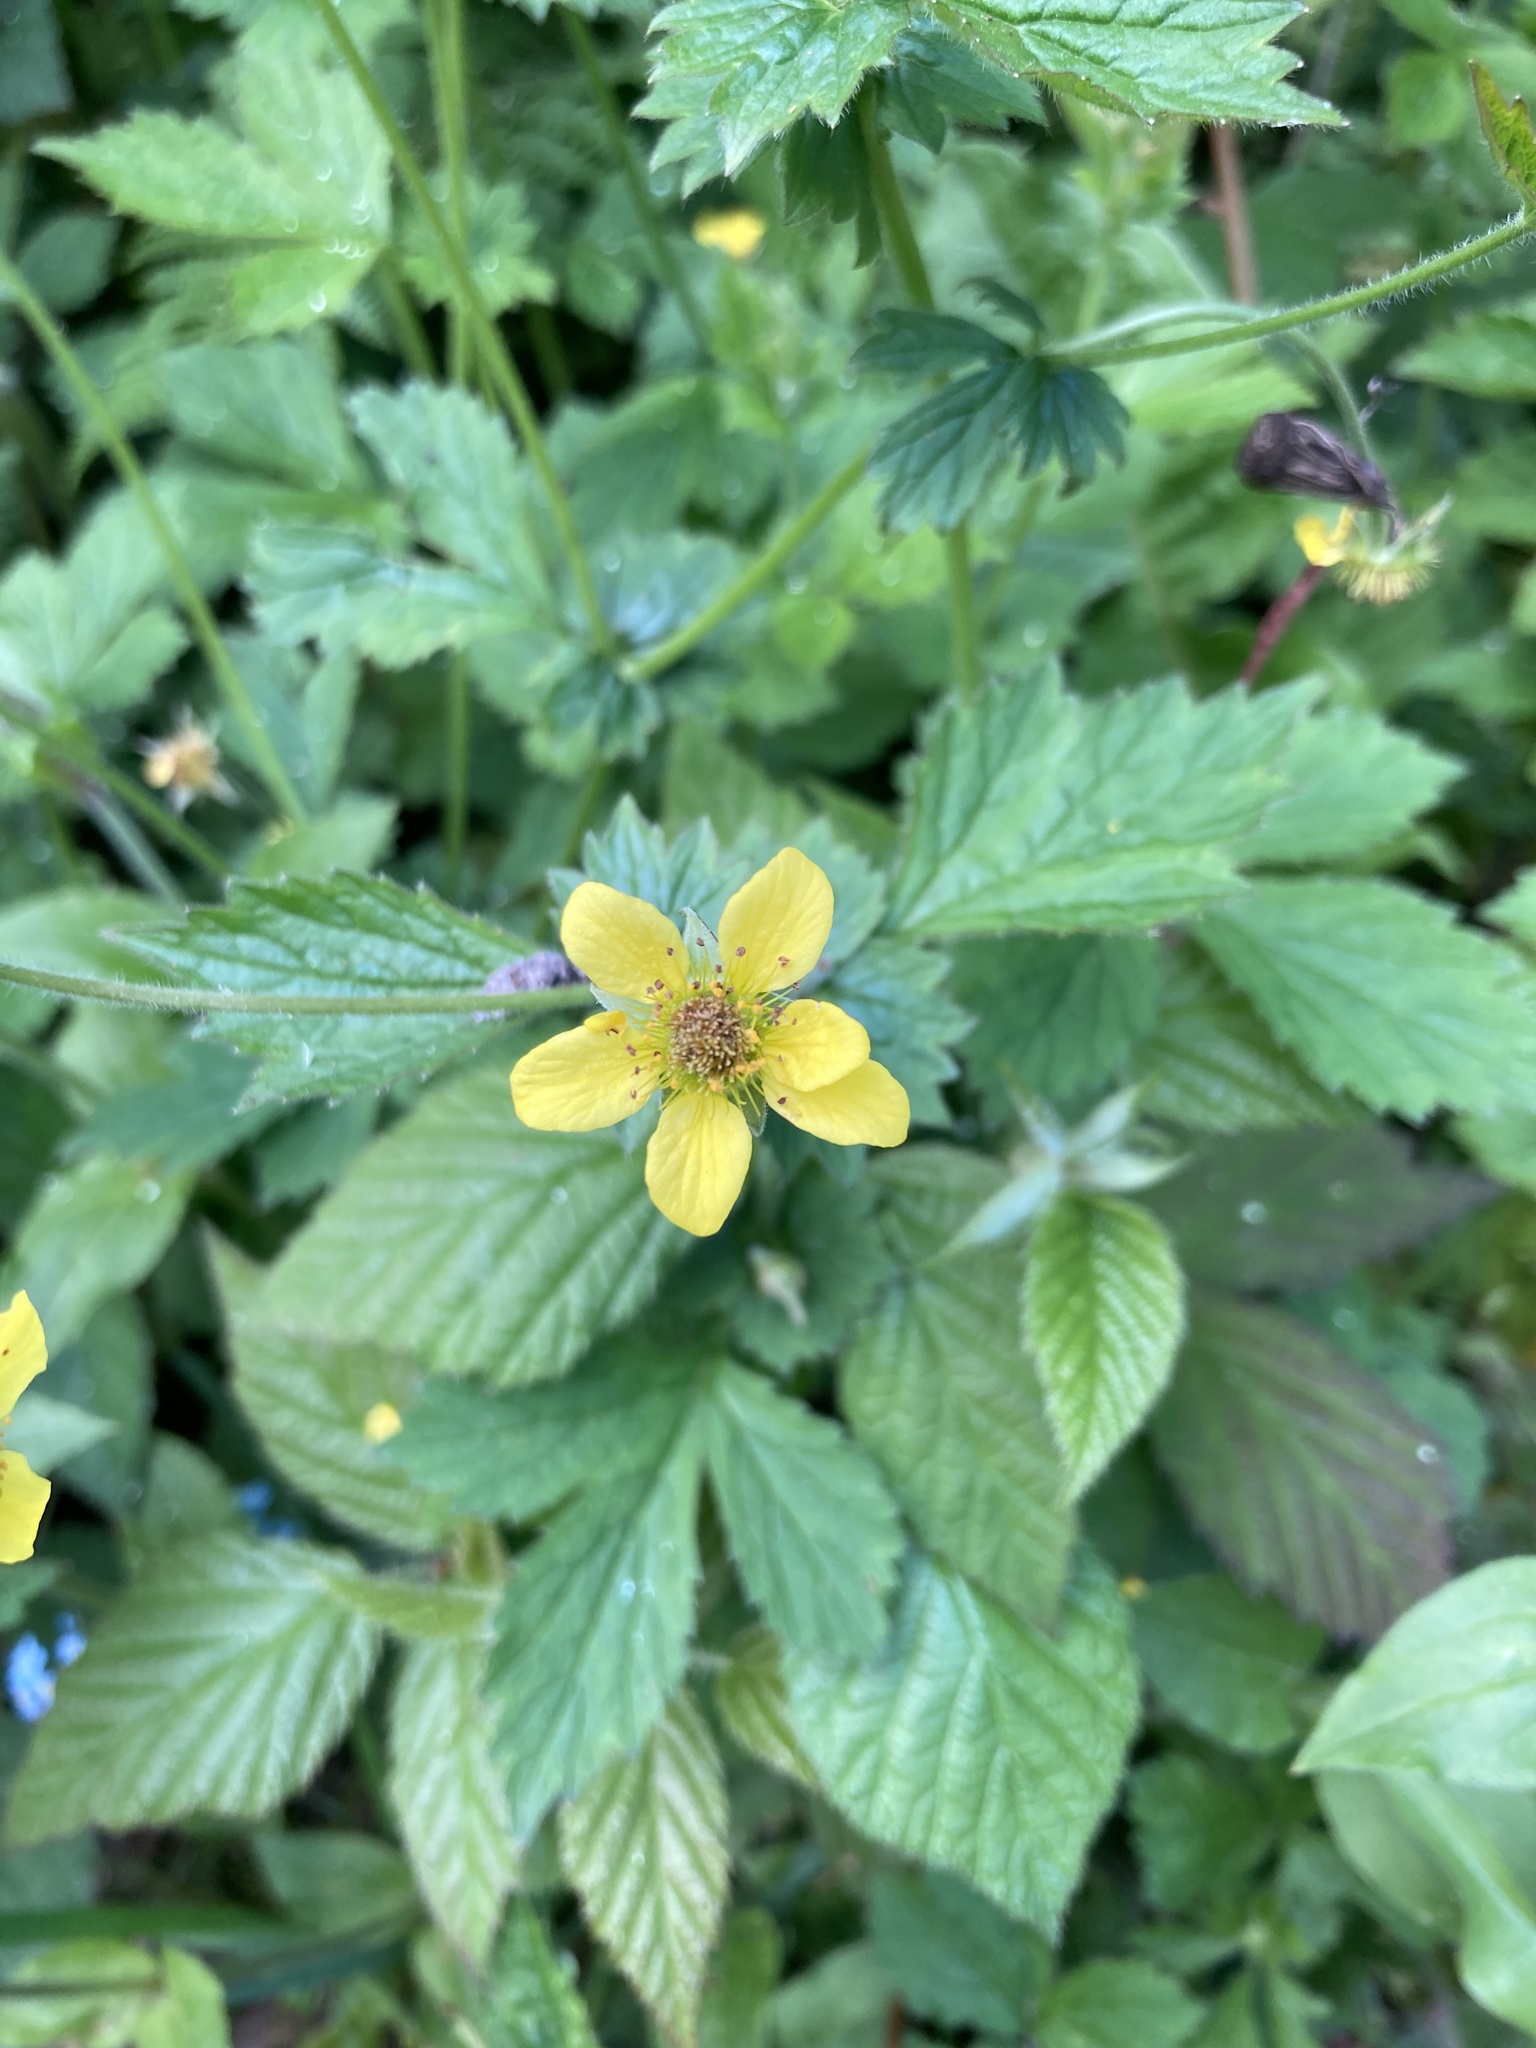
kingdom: Plantae
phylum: Tracheophyta
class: Magnoliopsida
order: Rosales
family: Rosaceae
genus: Geum
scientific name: Geum urbanum
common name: Wood avens
